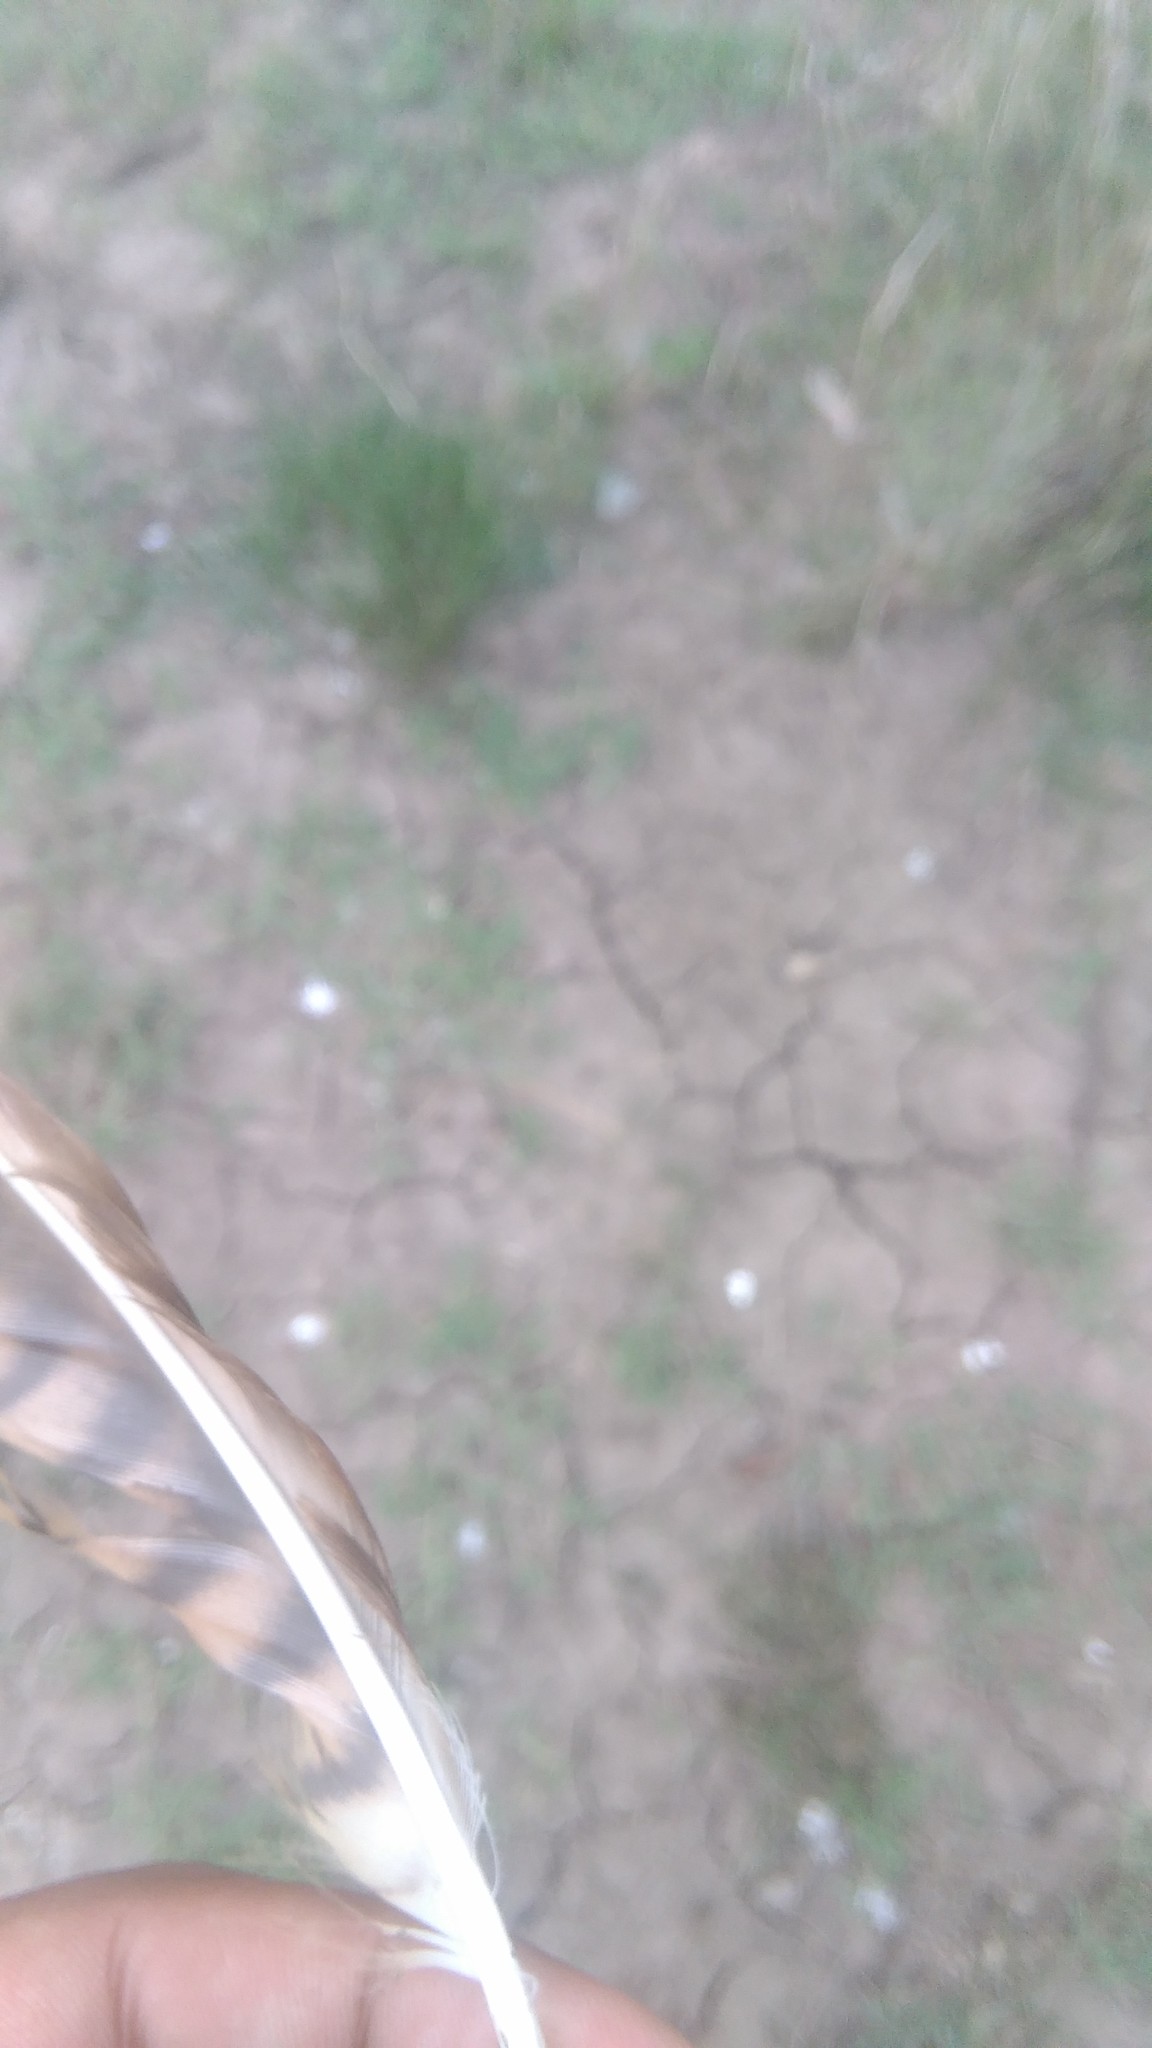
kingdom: Animalia
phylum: Chordata
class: Aves
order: Falconiformes
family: Falconidae
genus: Daptrius
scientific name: Daptrius
